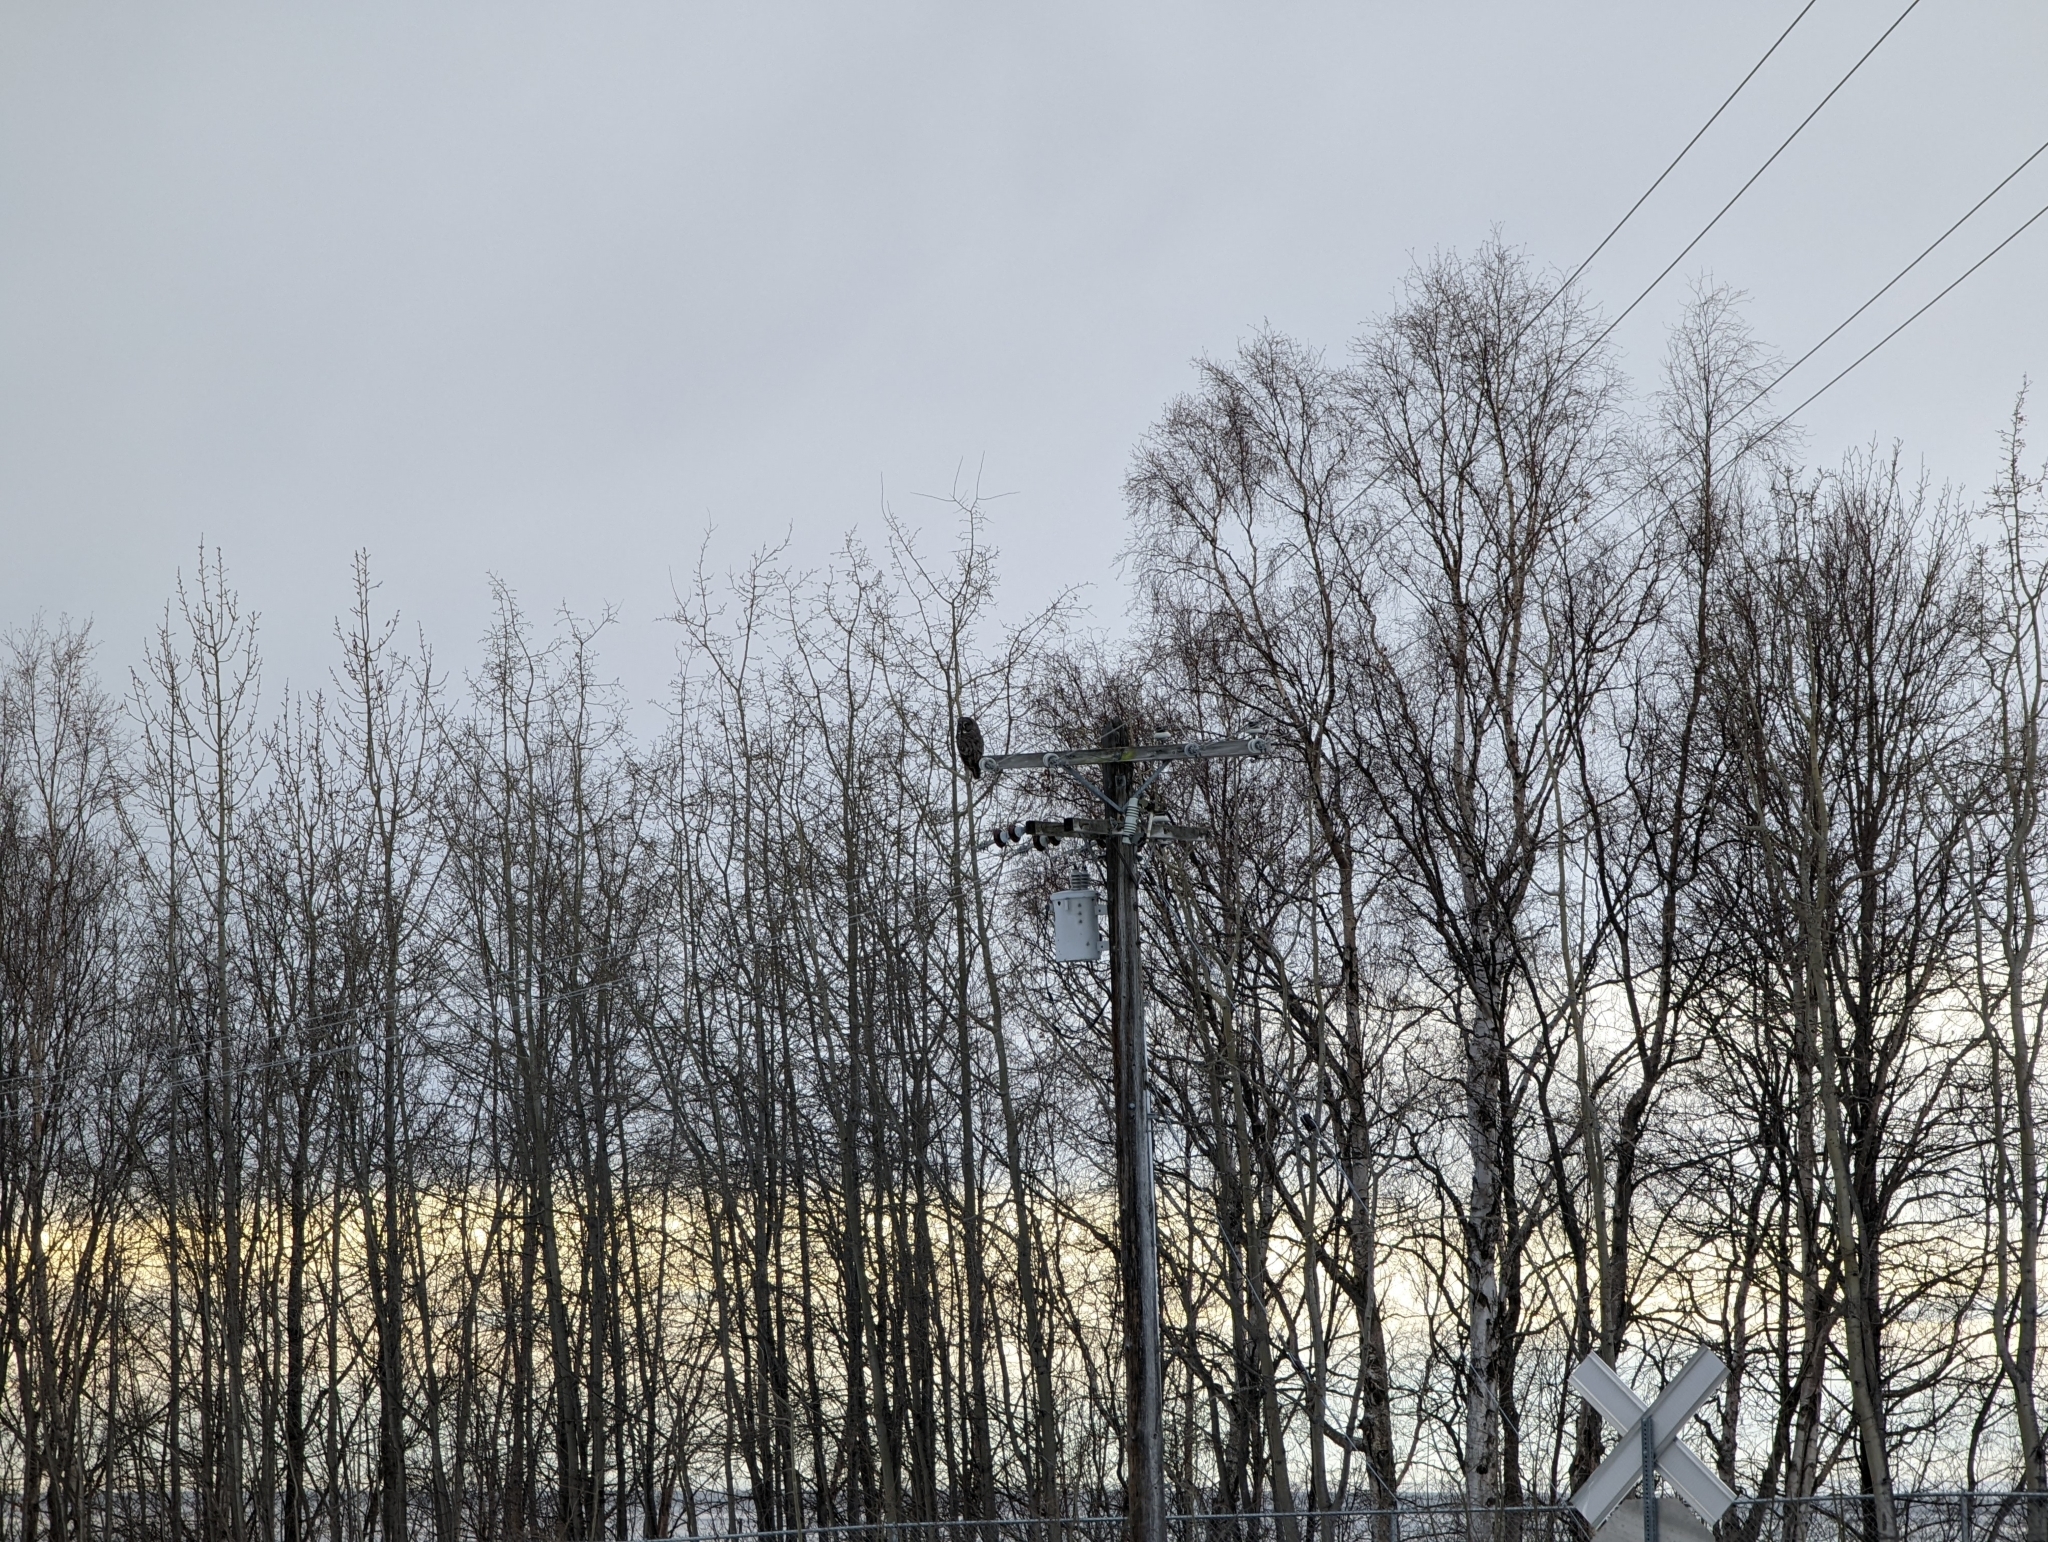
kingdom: Animalia
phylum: Chordata
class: Aves
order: Strigiformes
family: Strigidae
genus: Strix
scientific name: Strix nebulosa
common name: Great grey owl
